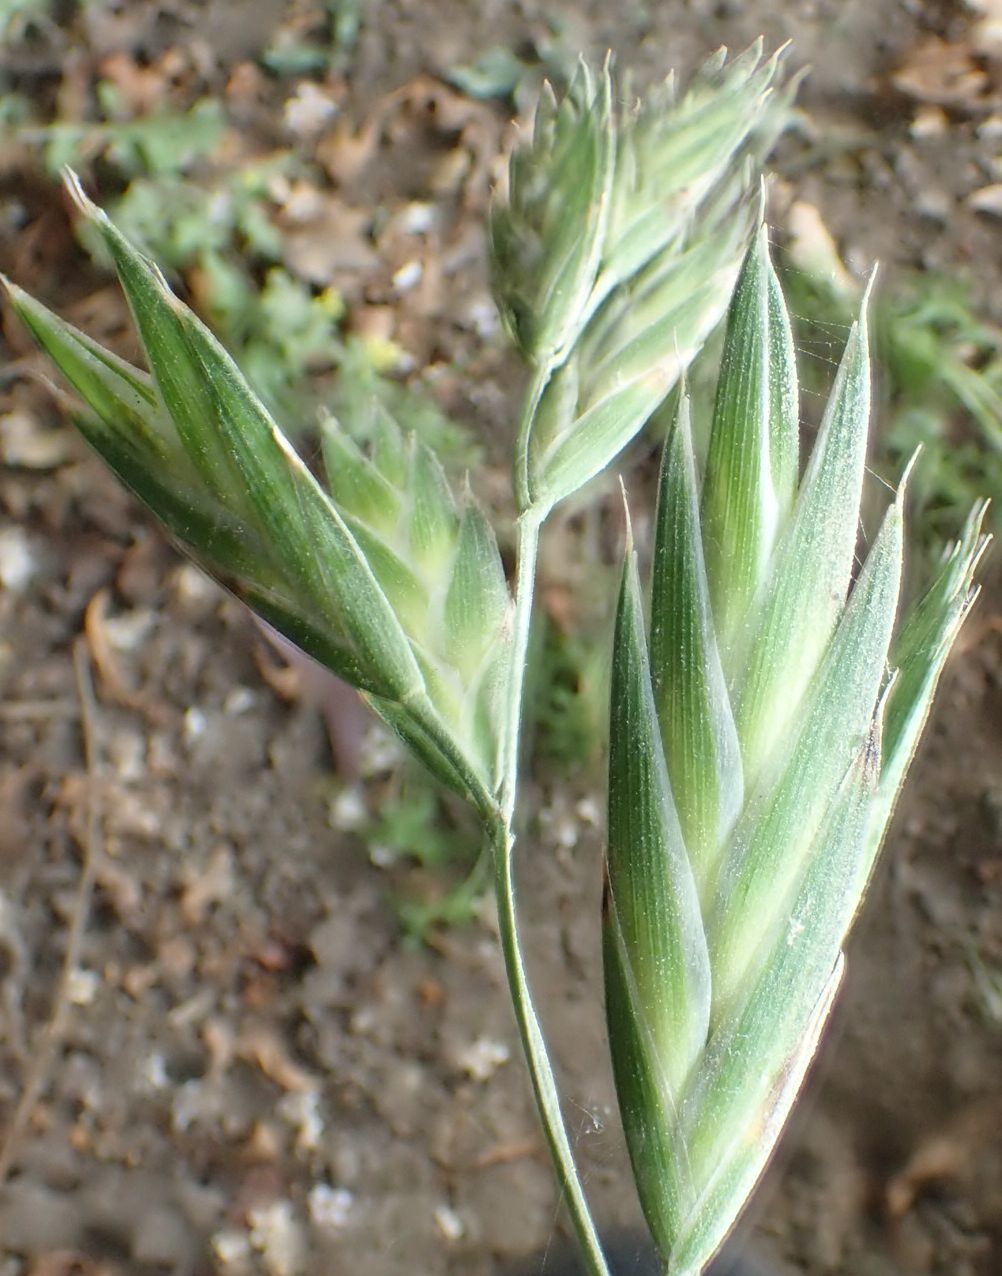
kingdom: Plantae
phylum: Tracheophyta
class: Liliopsida
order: Poales
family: Poaceae
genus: Bromus
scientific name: Bromus catharticus
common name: Rescuegrass
